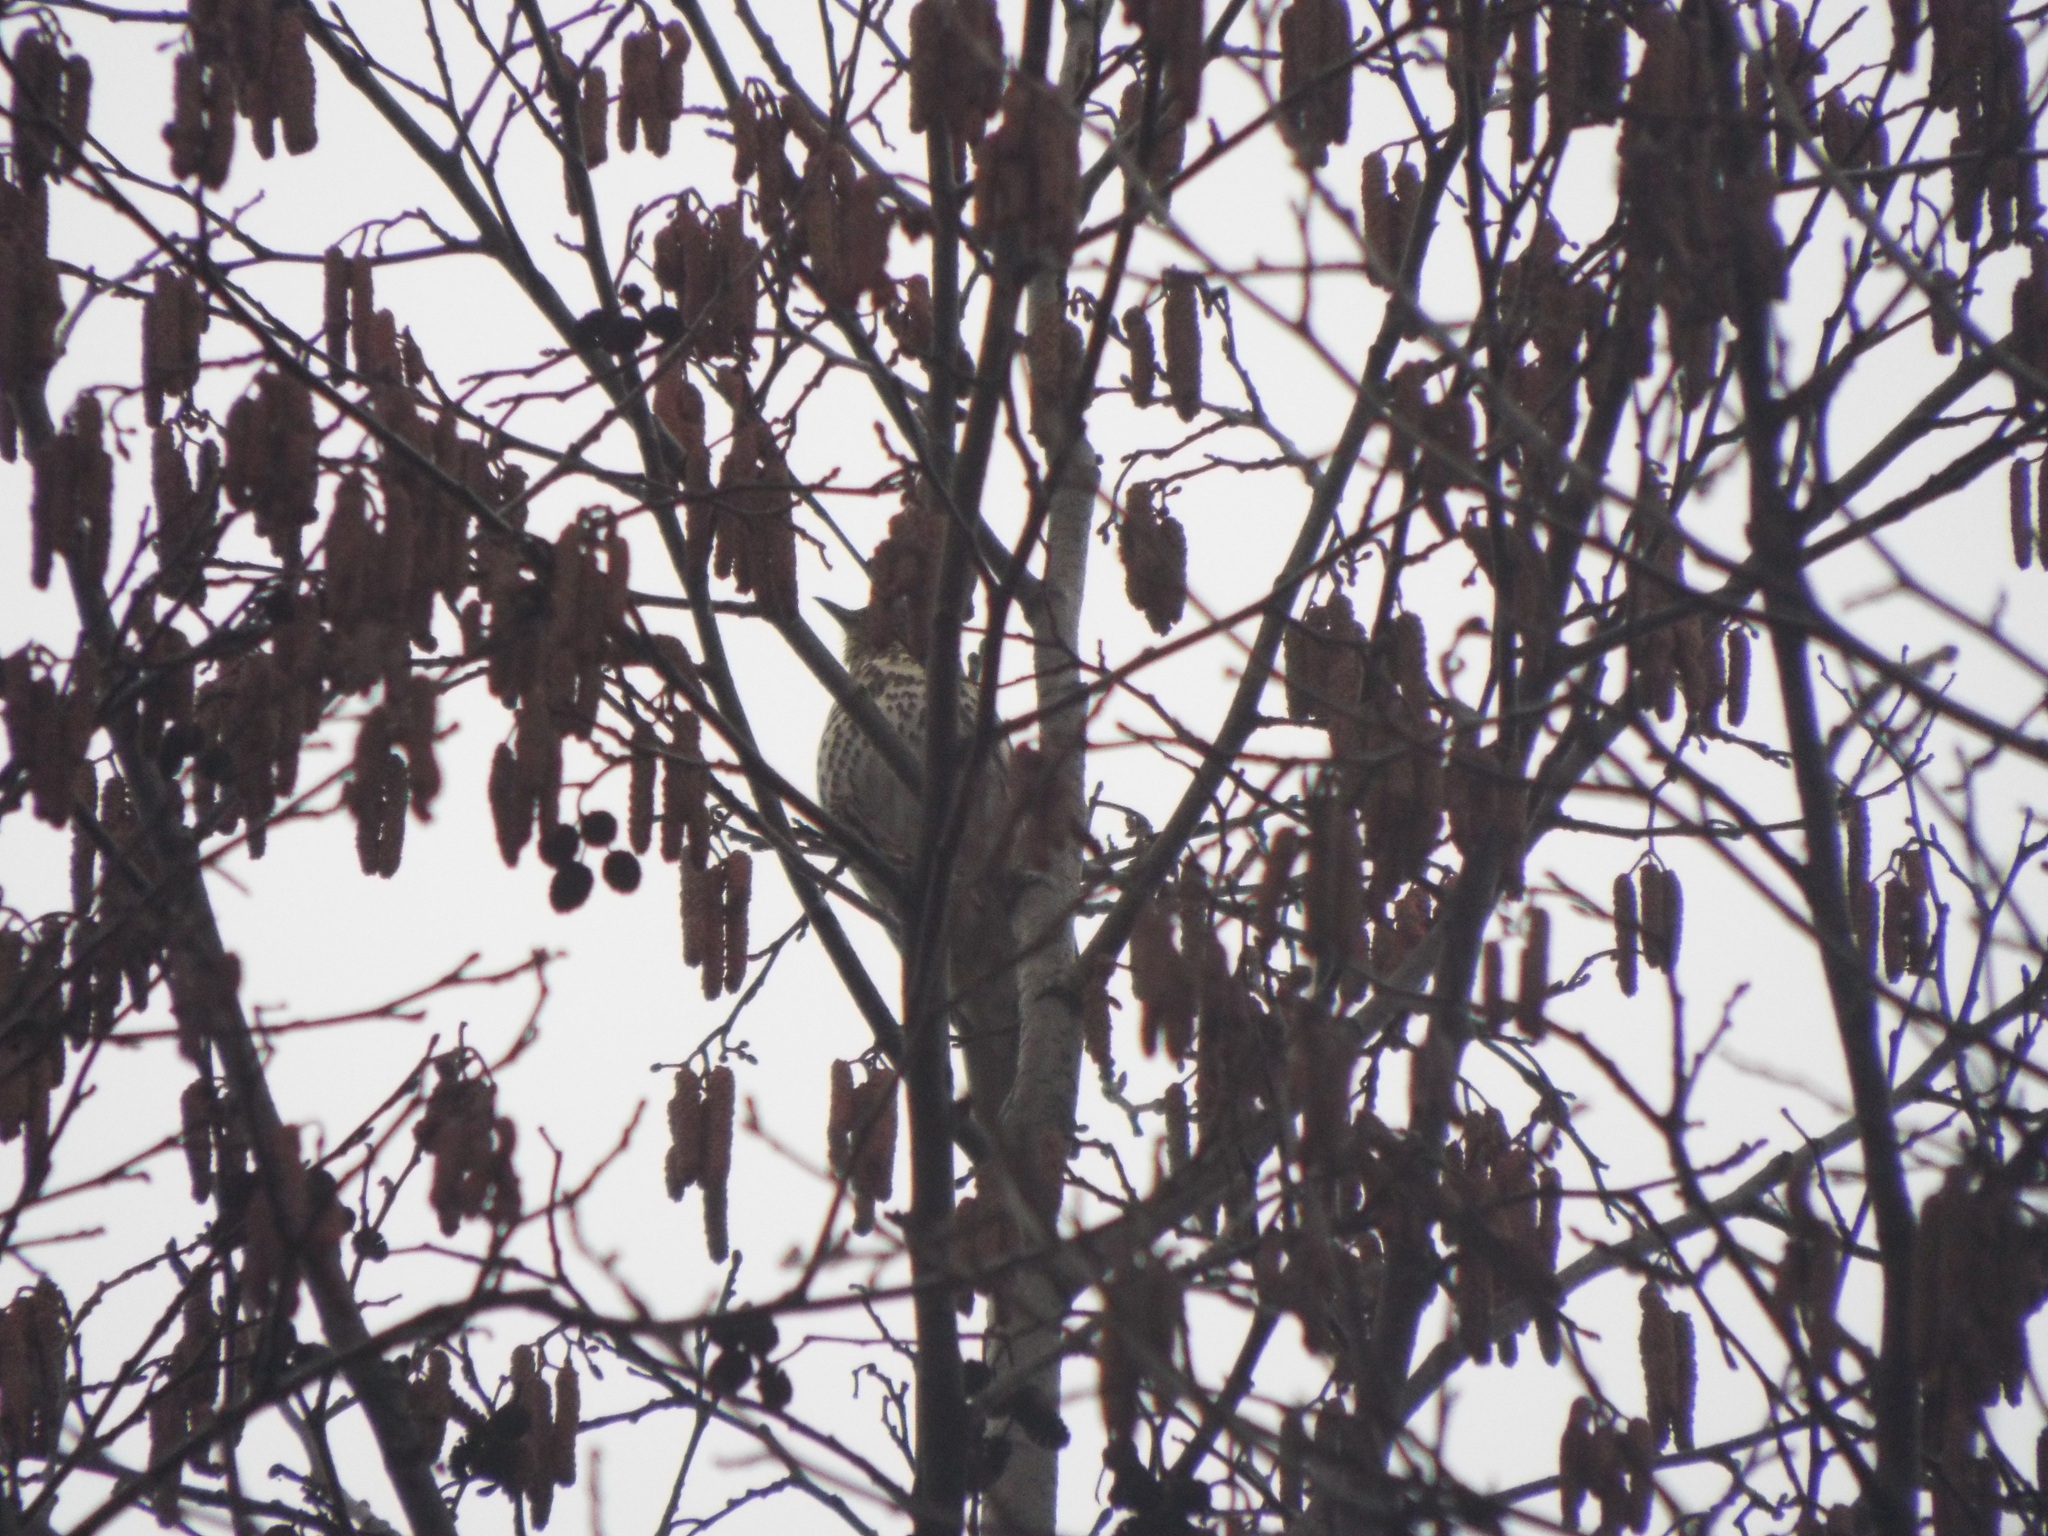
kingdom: Animalia
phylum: Chordata
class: Aves
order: Passeriformes
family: Turdidae
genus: Turdus
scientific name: Turdus philomelos
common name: Song thrush
